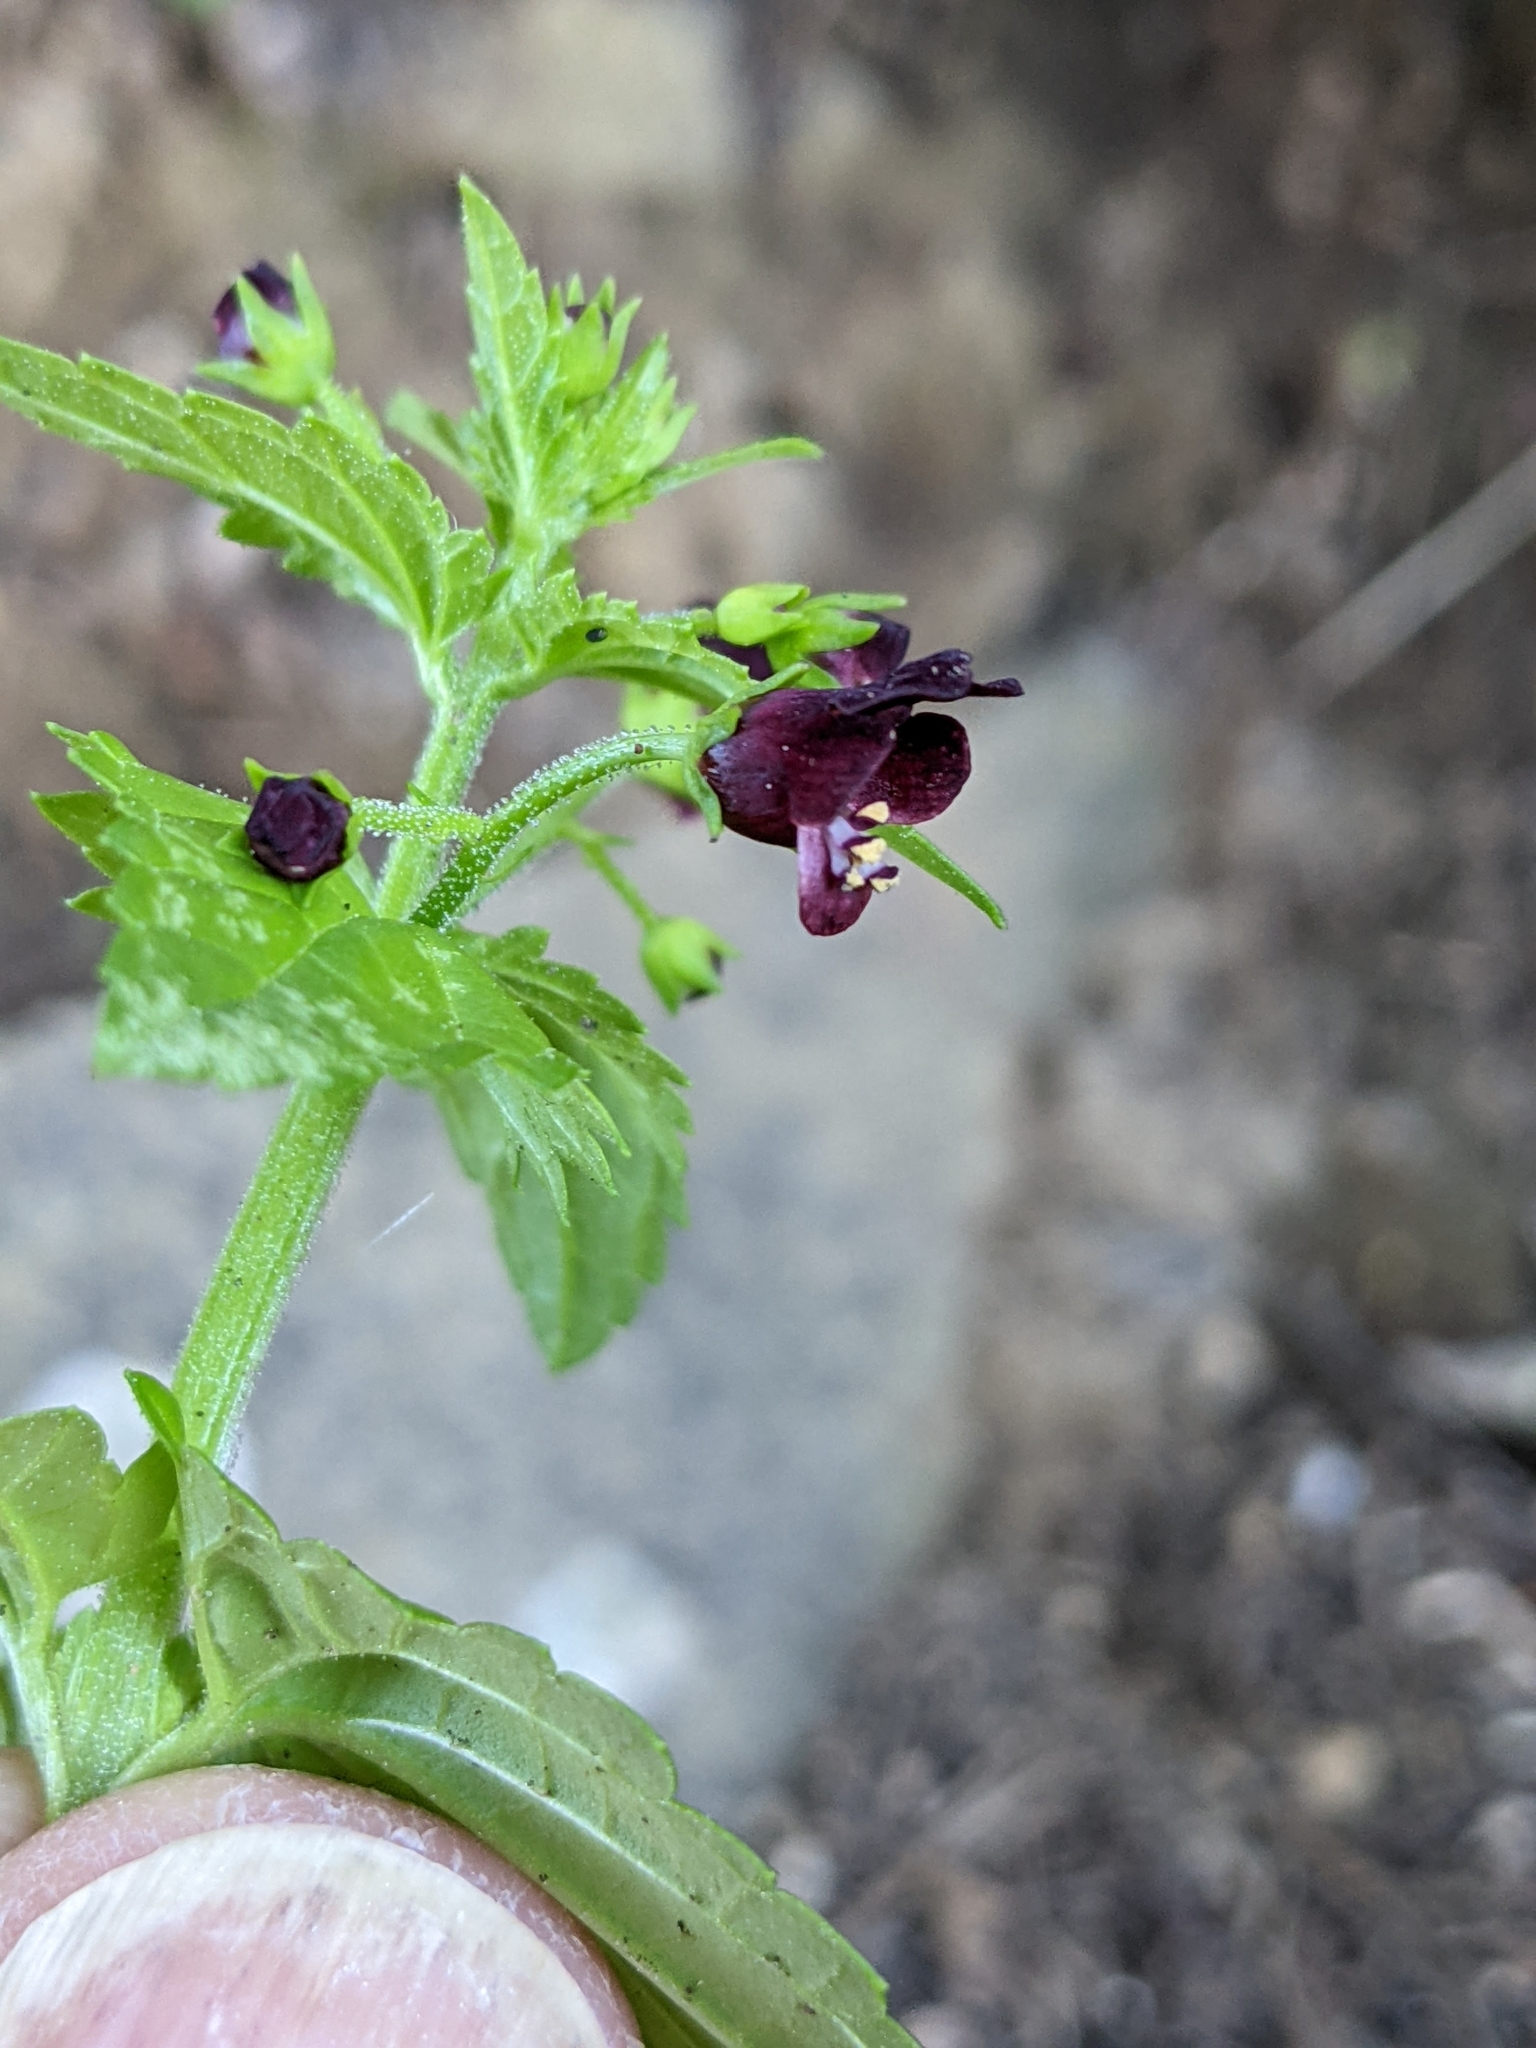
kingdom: Plantae
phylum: Tracheophyta
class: Magnoliopsida
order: Lamiales
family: Scrophulariaceae
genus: Scrophularia
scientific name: Scrophularia peregrina
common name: Mediterranean figwort
